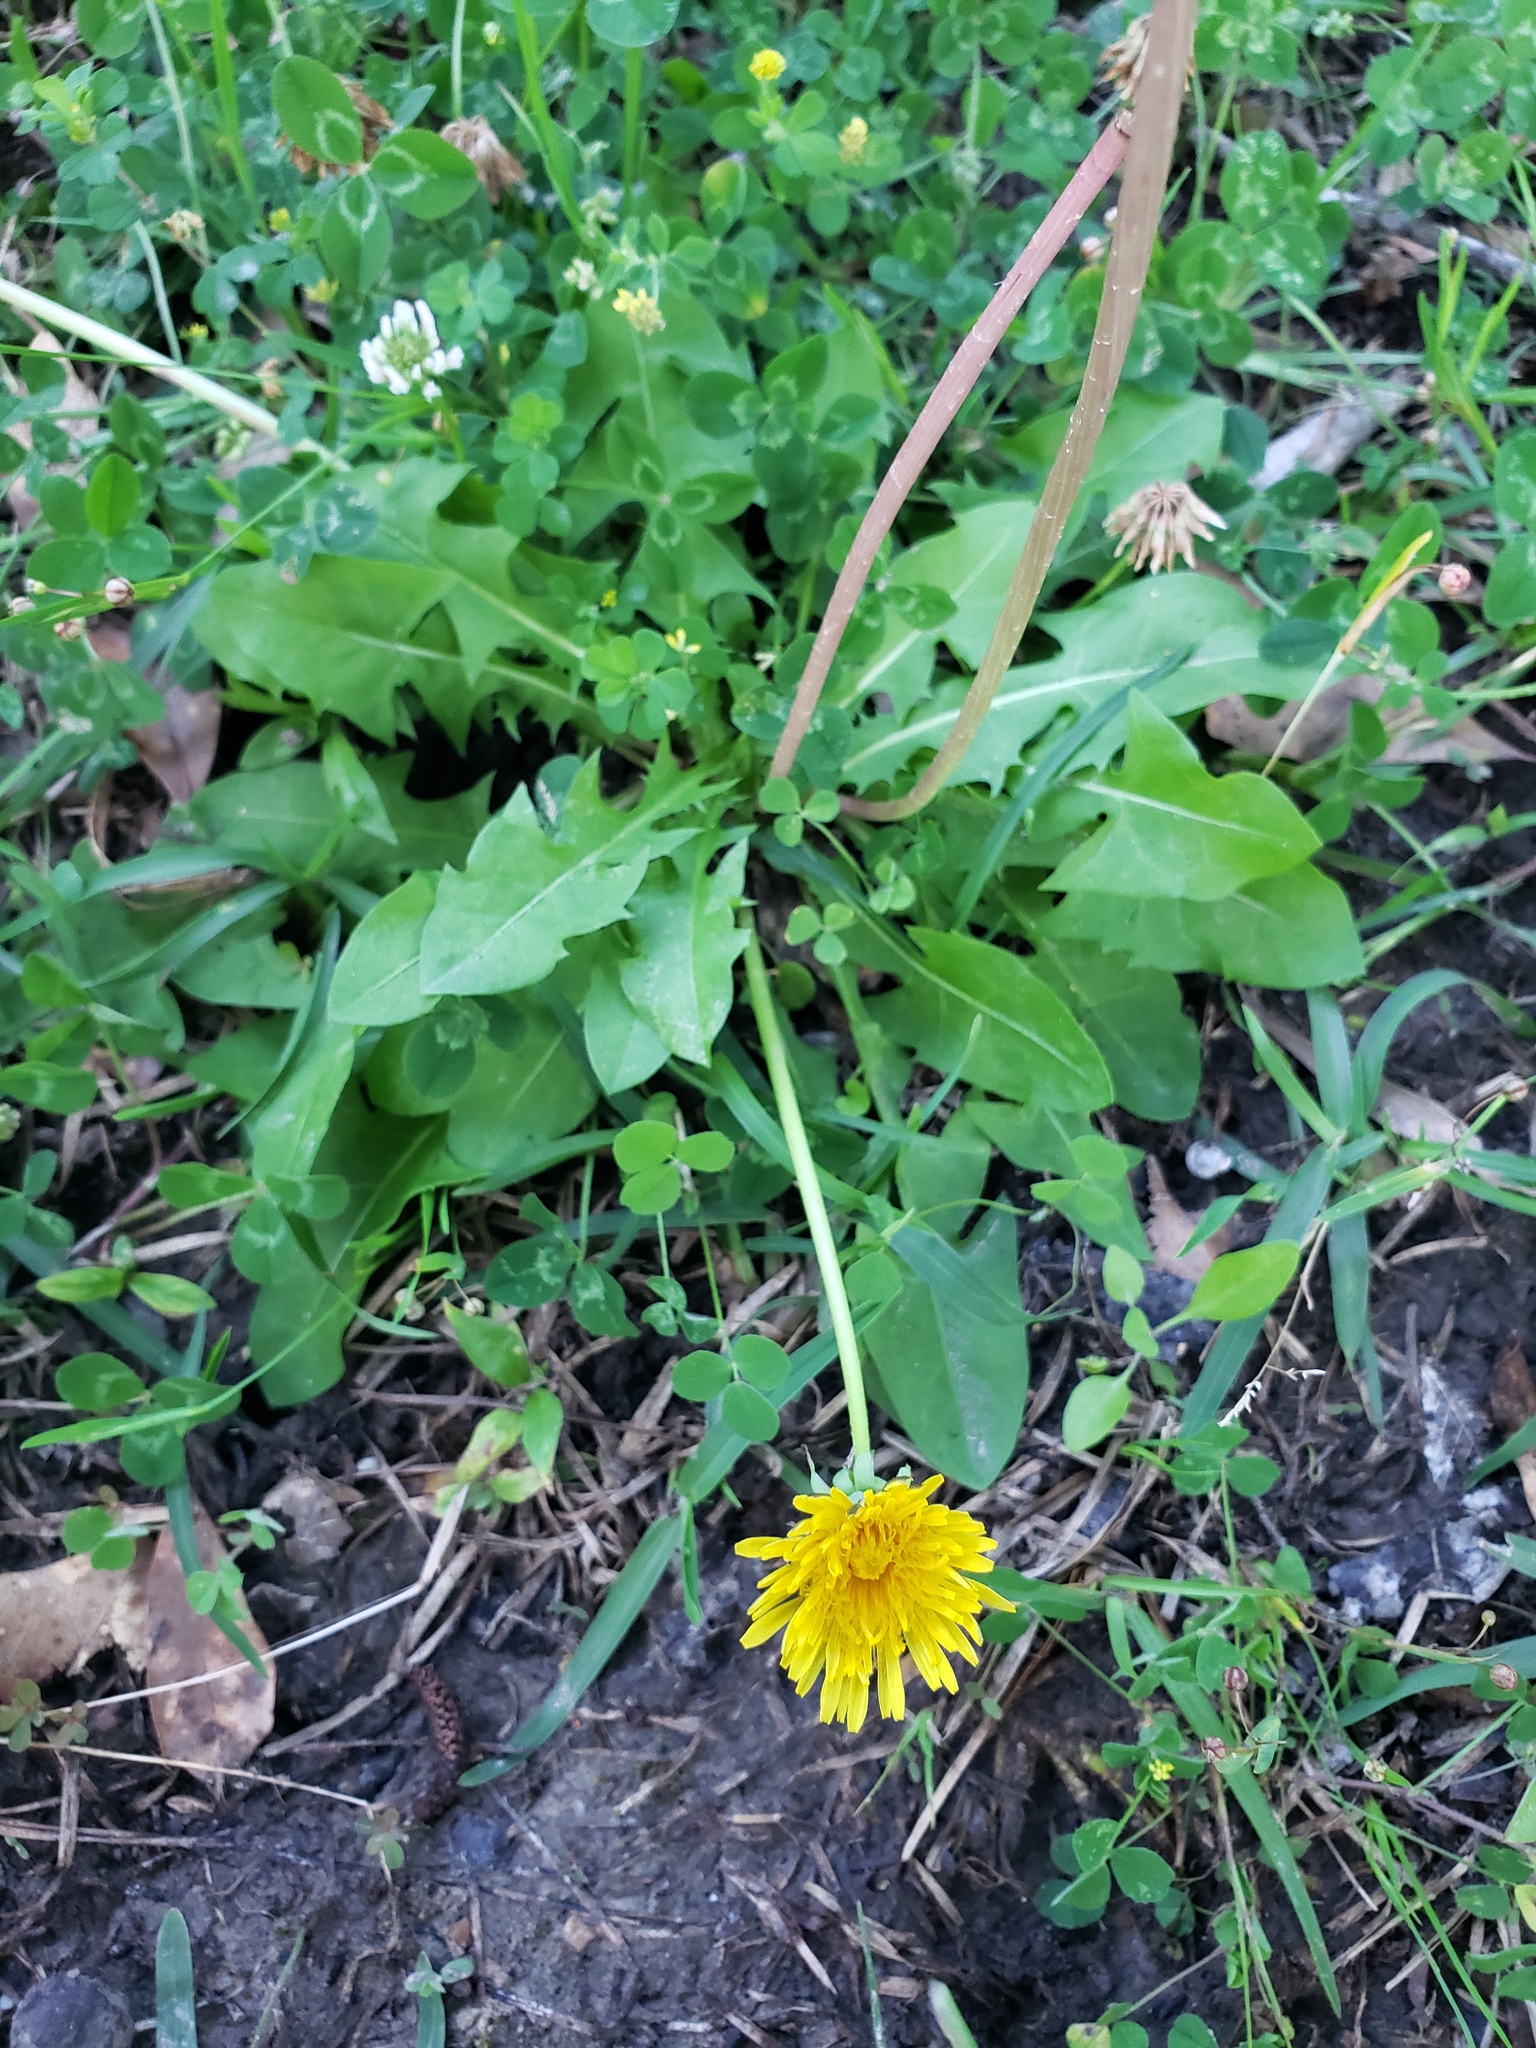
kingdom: Plantae
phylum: Tracheophyta
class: Magnoliopsida
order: Asterales
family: Asteraceae
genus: Taraxacum
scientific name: Taraxacum officinale
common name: Common dandelion
